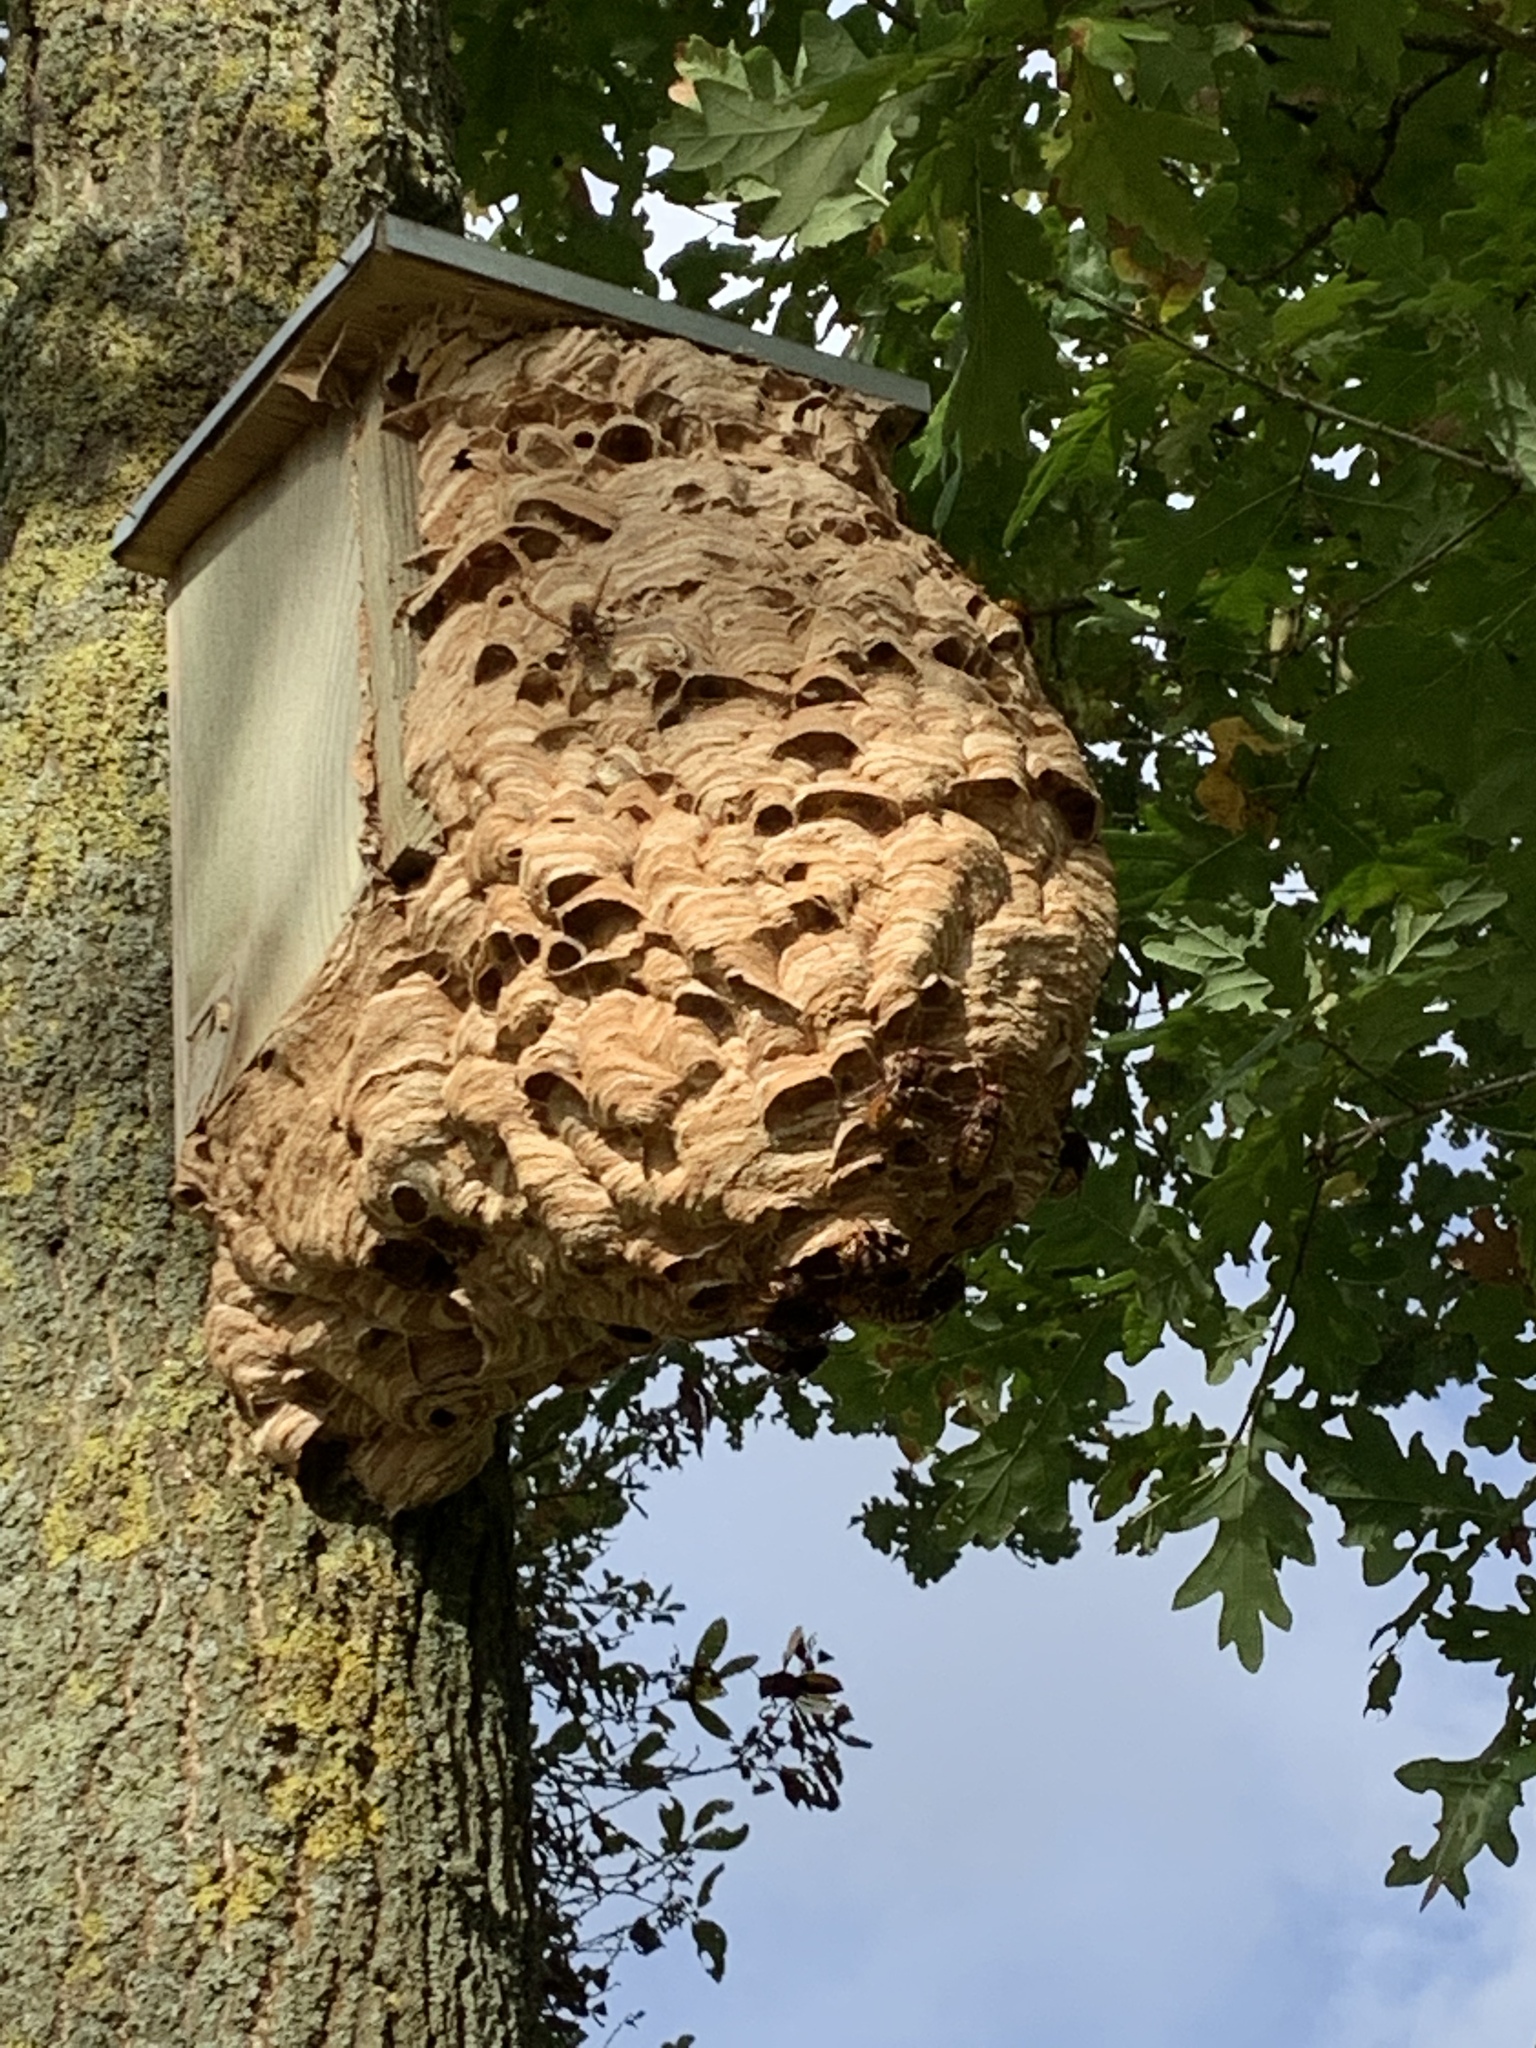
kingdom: Animalia
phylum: Arthropoda
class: Insecta
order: Hymenoptera
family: Vespidae
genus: Vespa
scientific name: Vespa crabro
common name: Hornet
